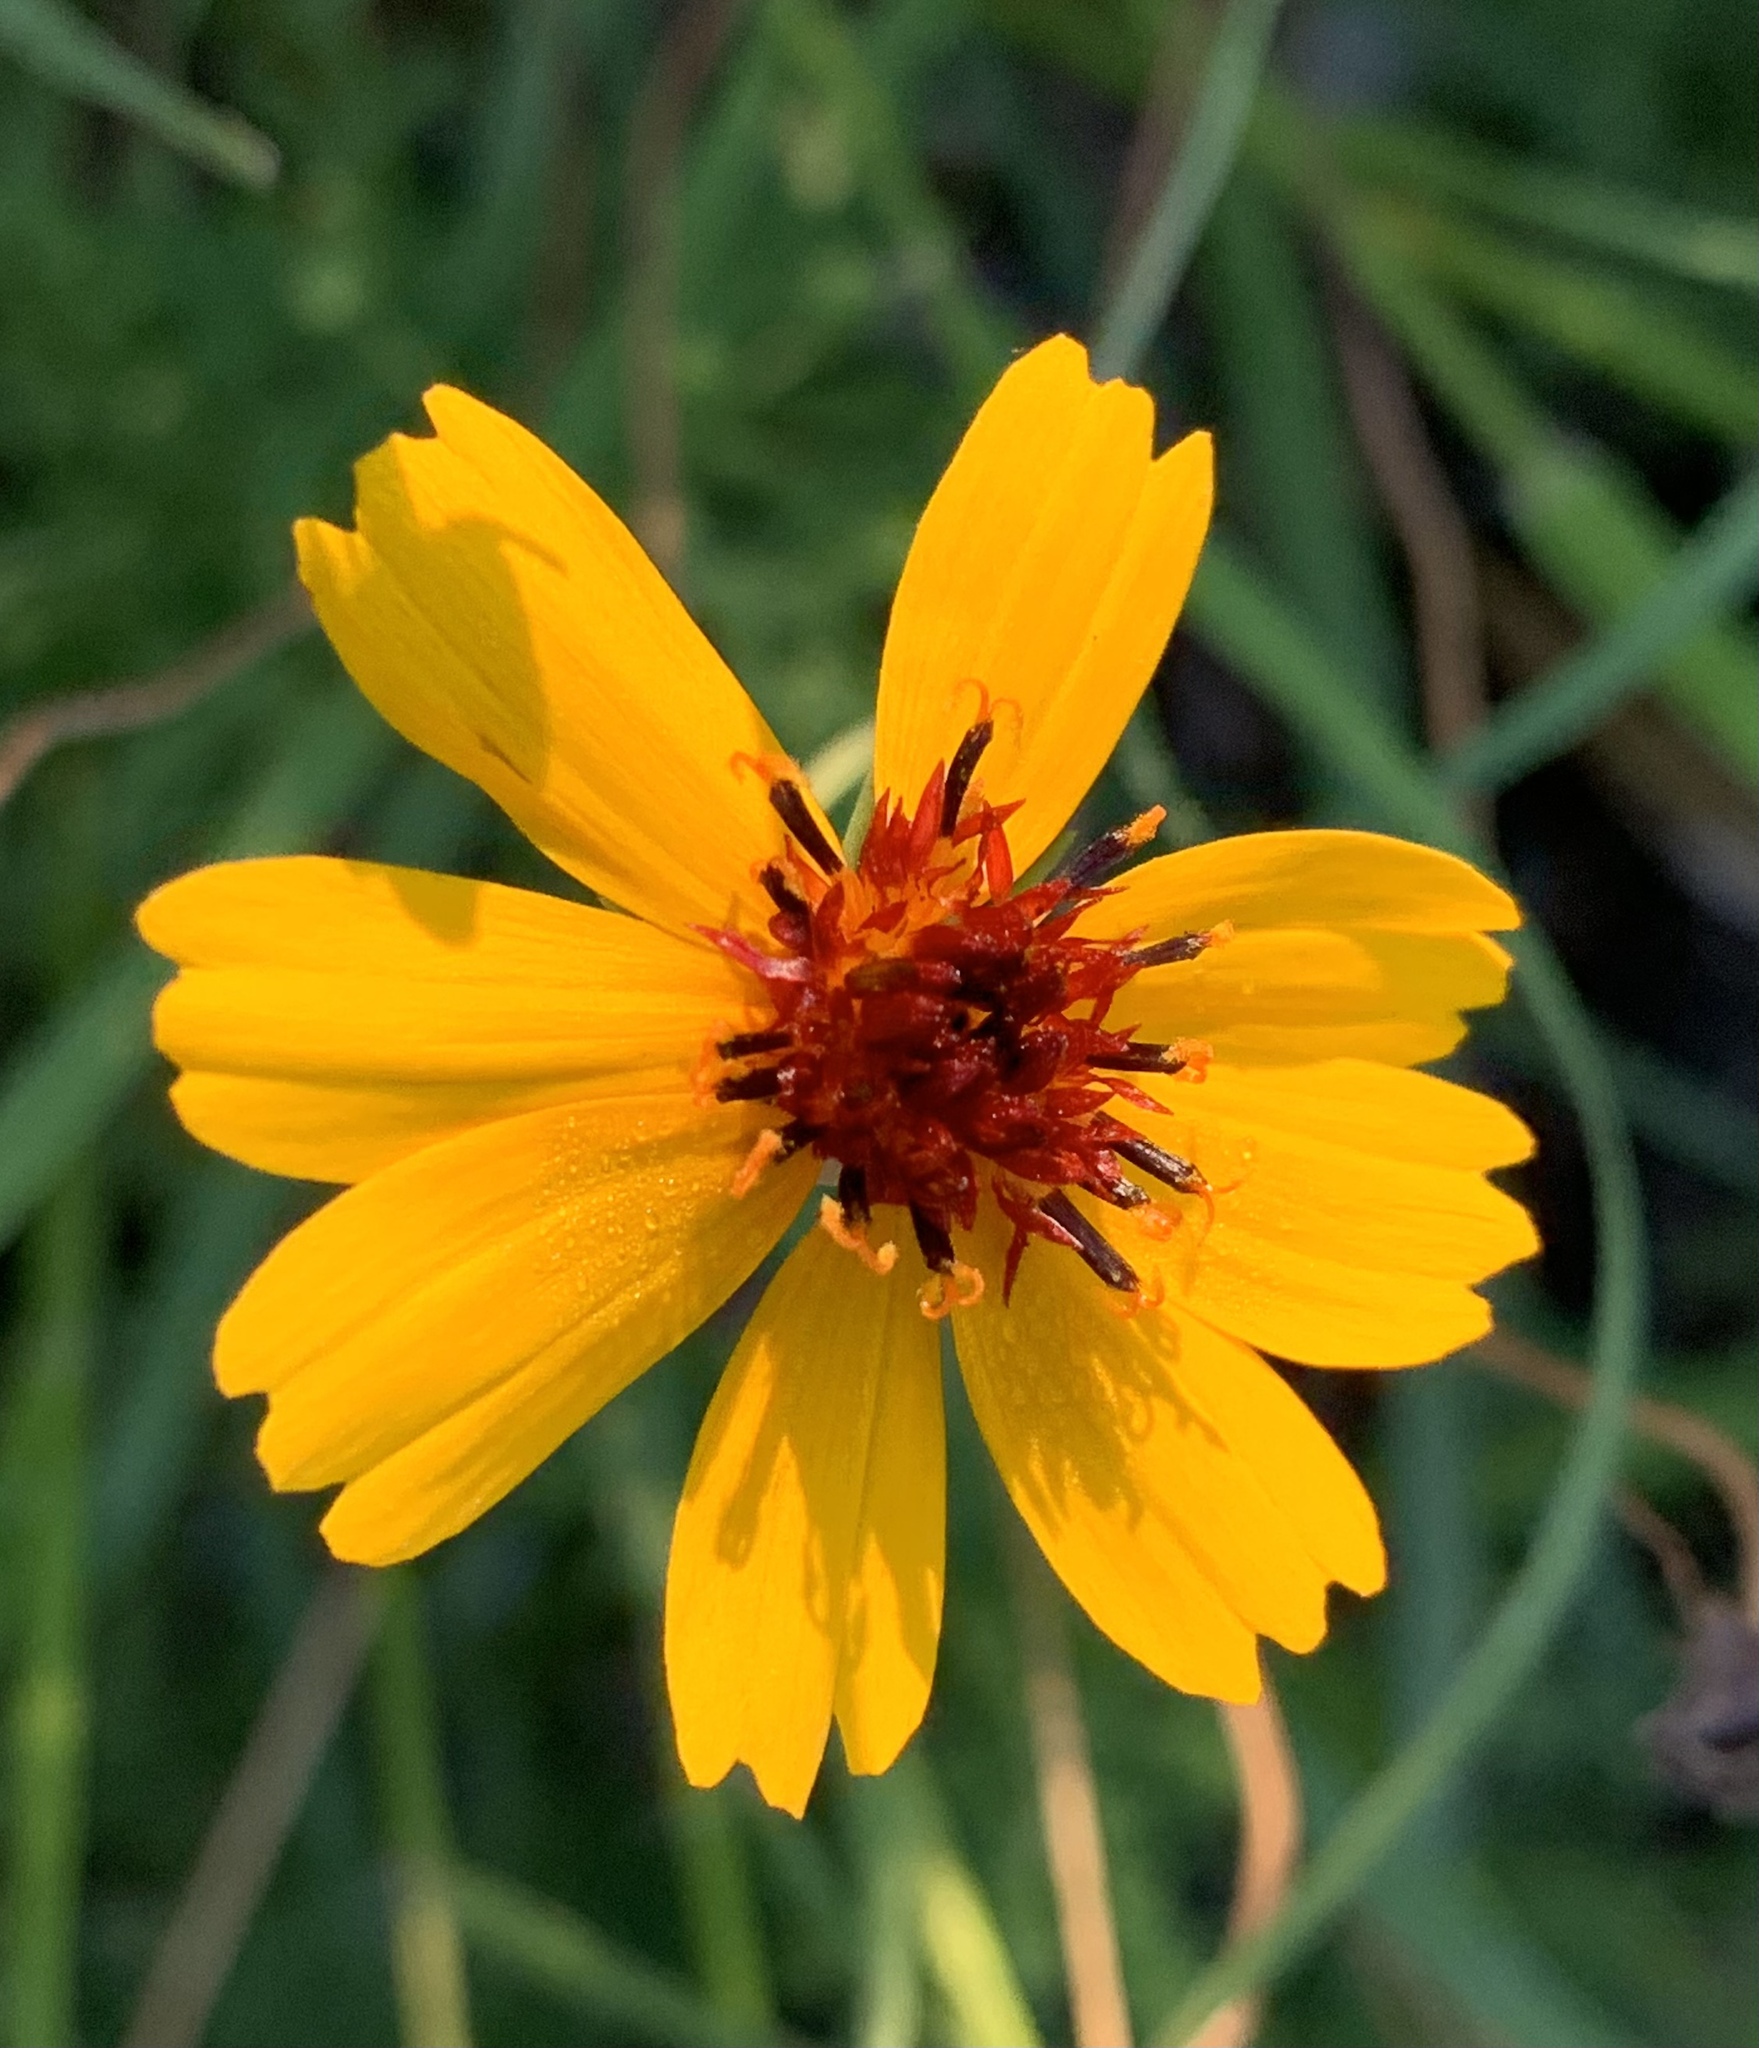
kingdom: Plantae
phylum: Tracheophyta
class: Magnoliopsida
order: Asterales
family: Asteraceae
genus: Thelesperma
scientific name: Thelesperma filifolium
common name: Stiff greenthread
